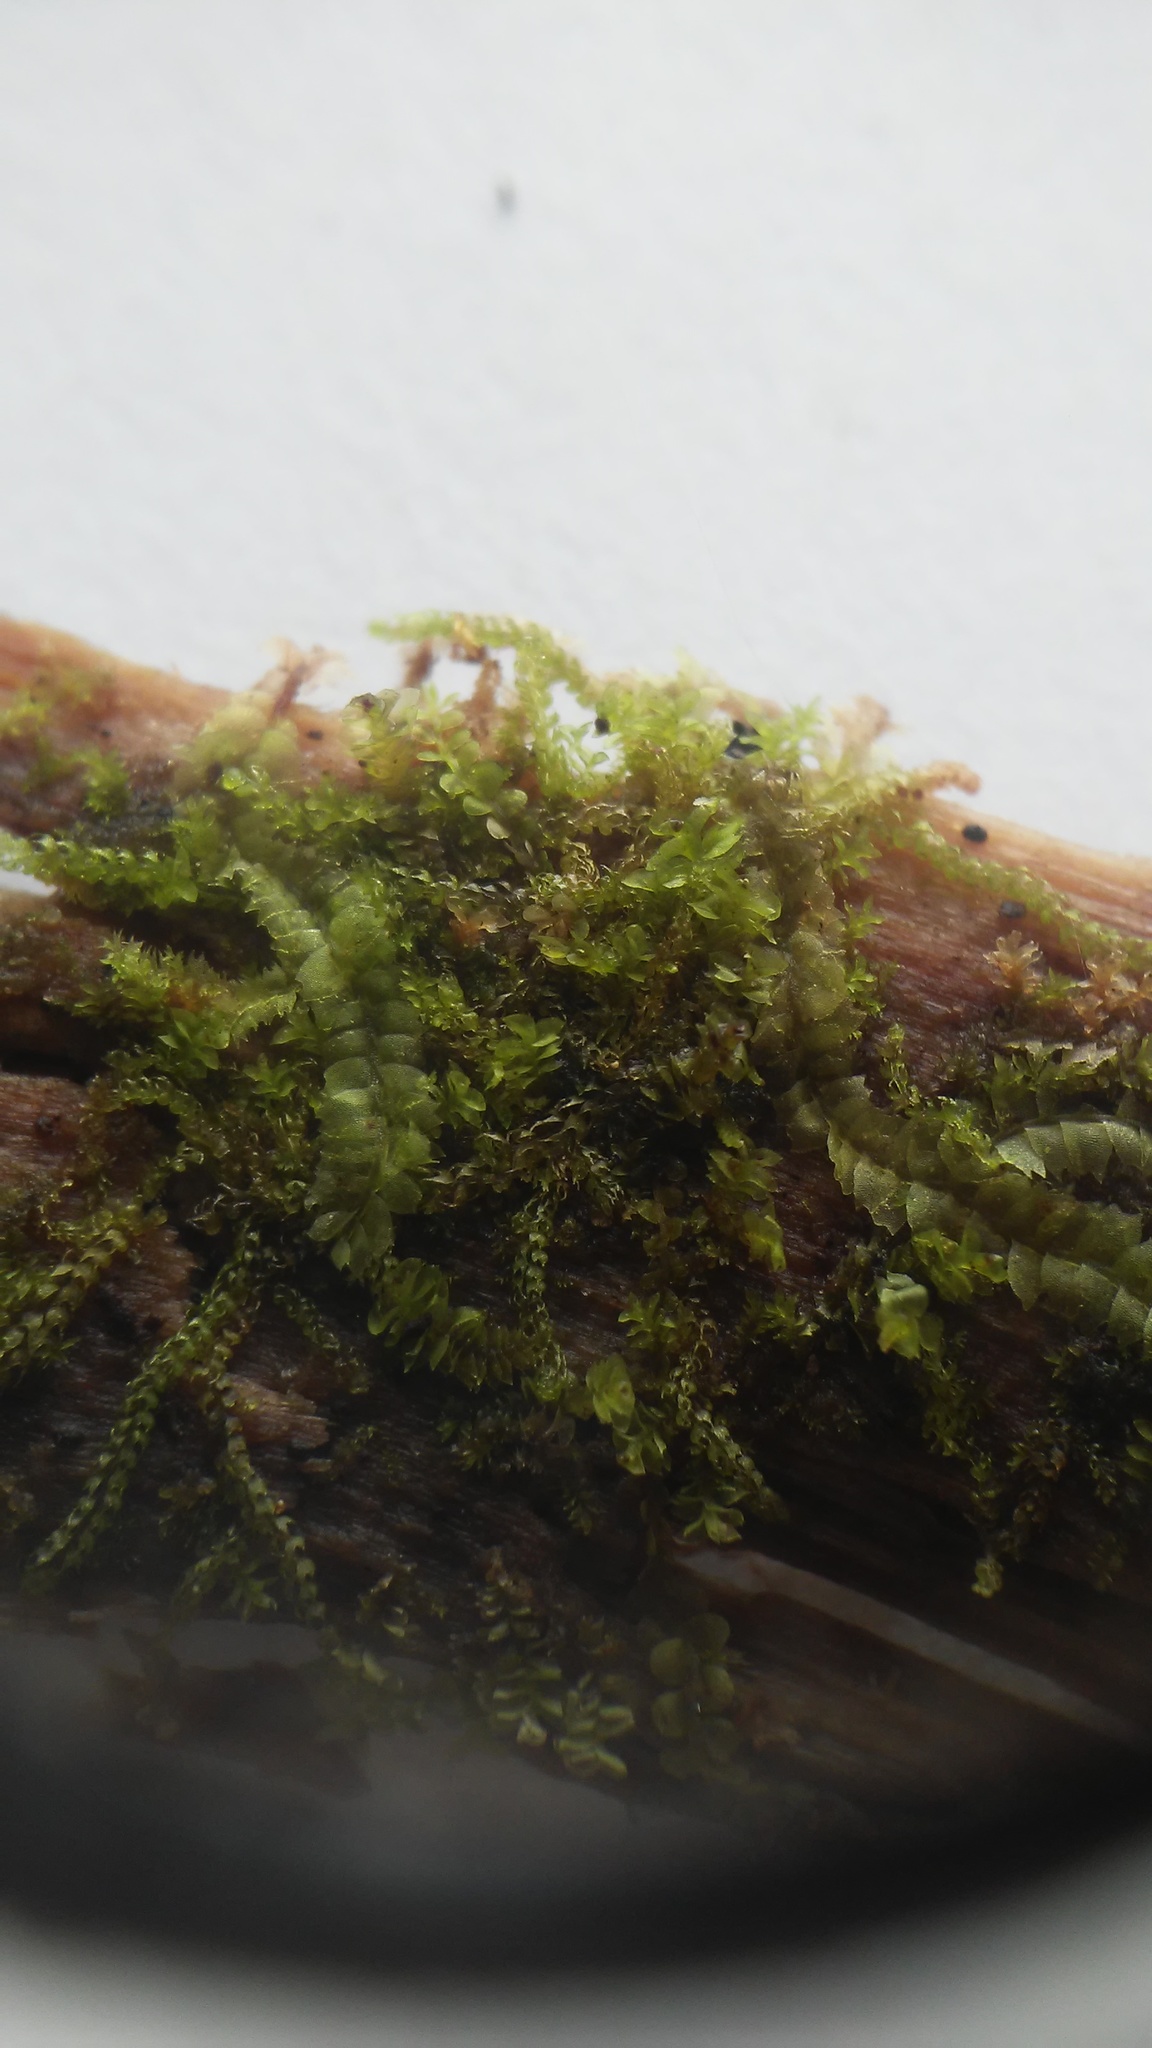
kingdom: Plantae
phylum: Marchantiophyta
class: Jungermanniopsida
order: Jungermanniales
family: Cephaloziaceae
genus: Nowellia
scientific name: Nowellia curvifolia
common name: Wood rustwort
